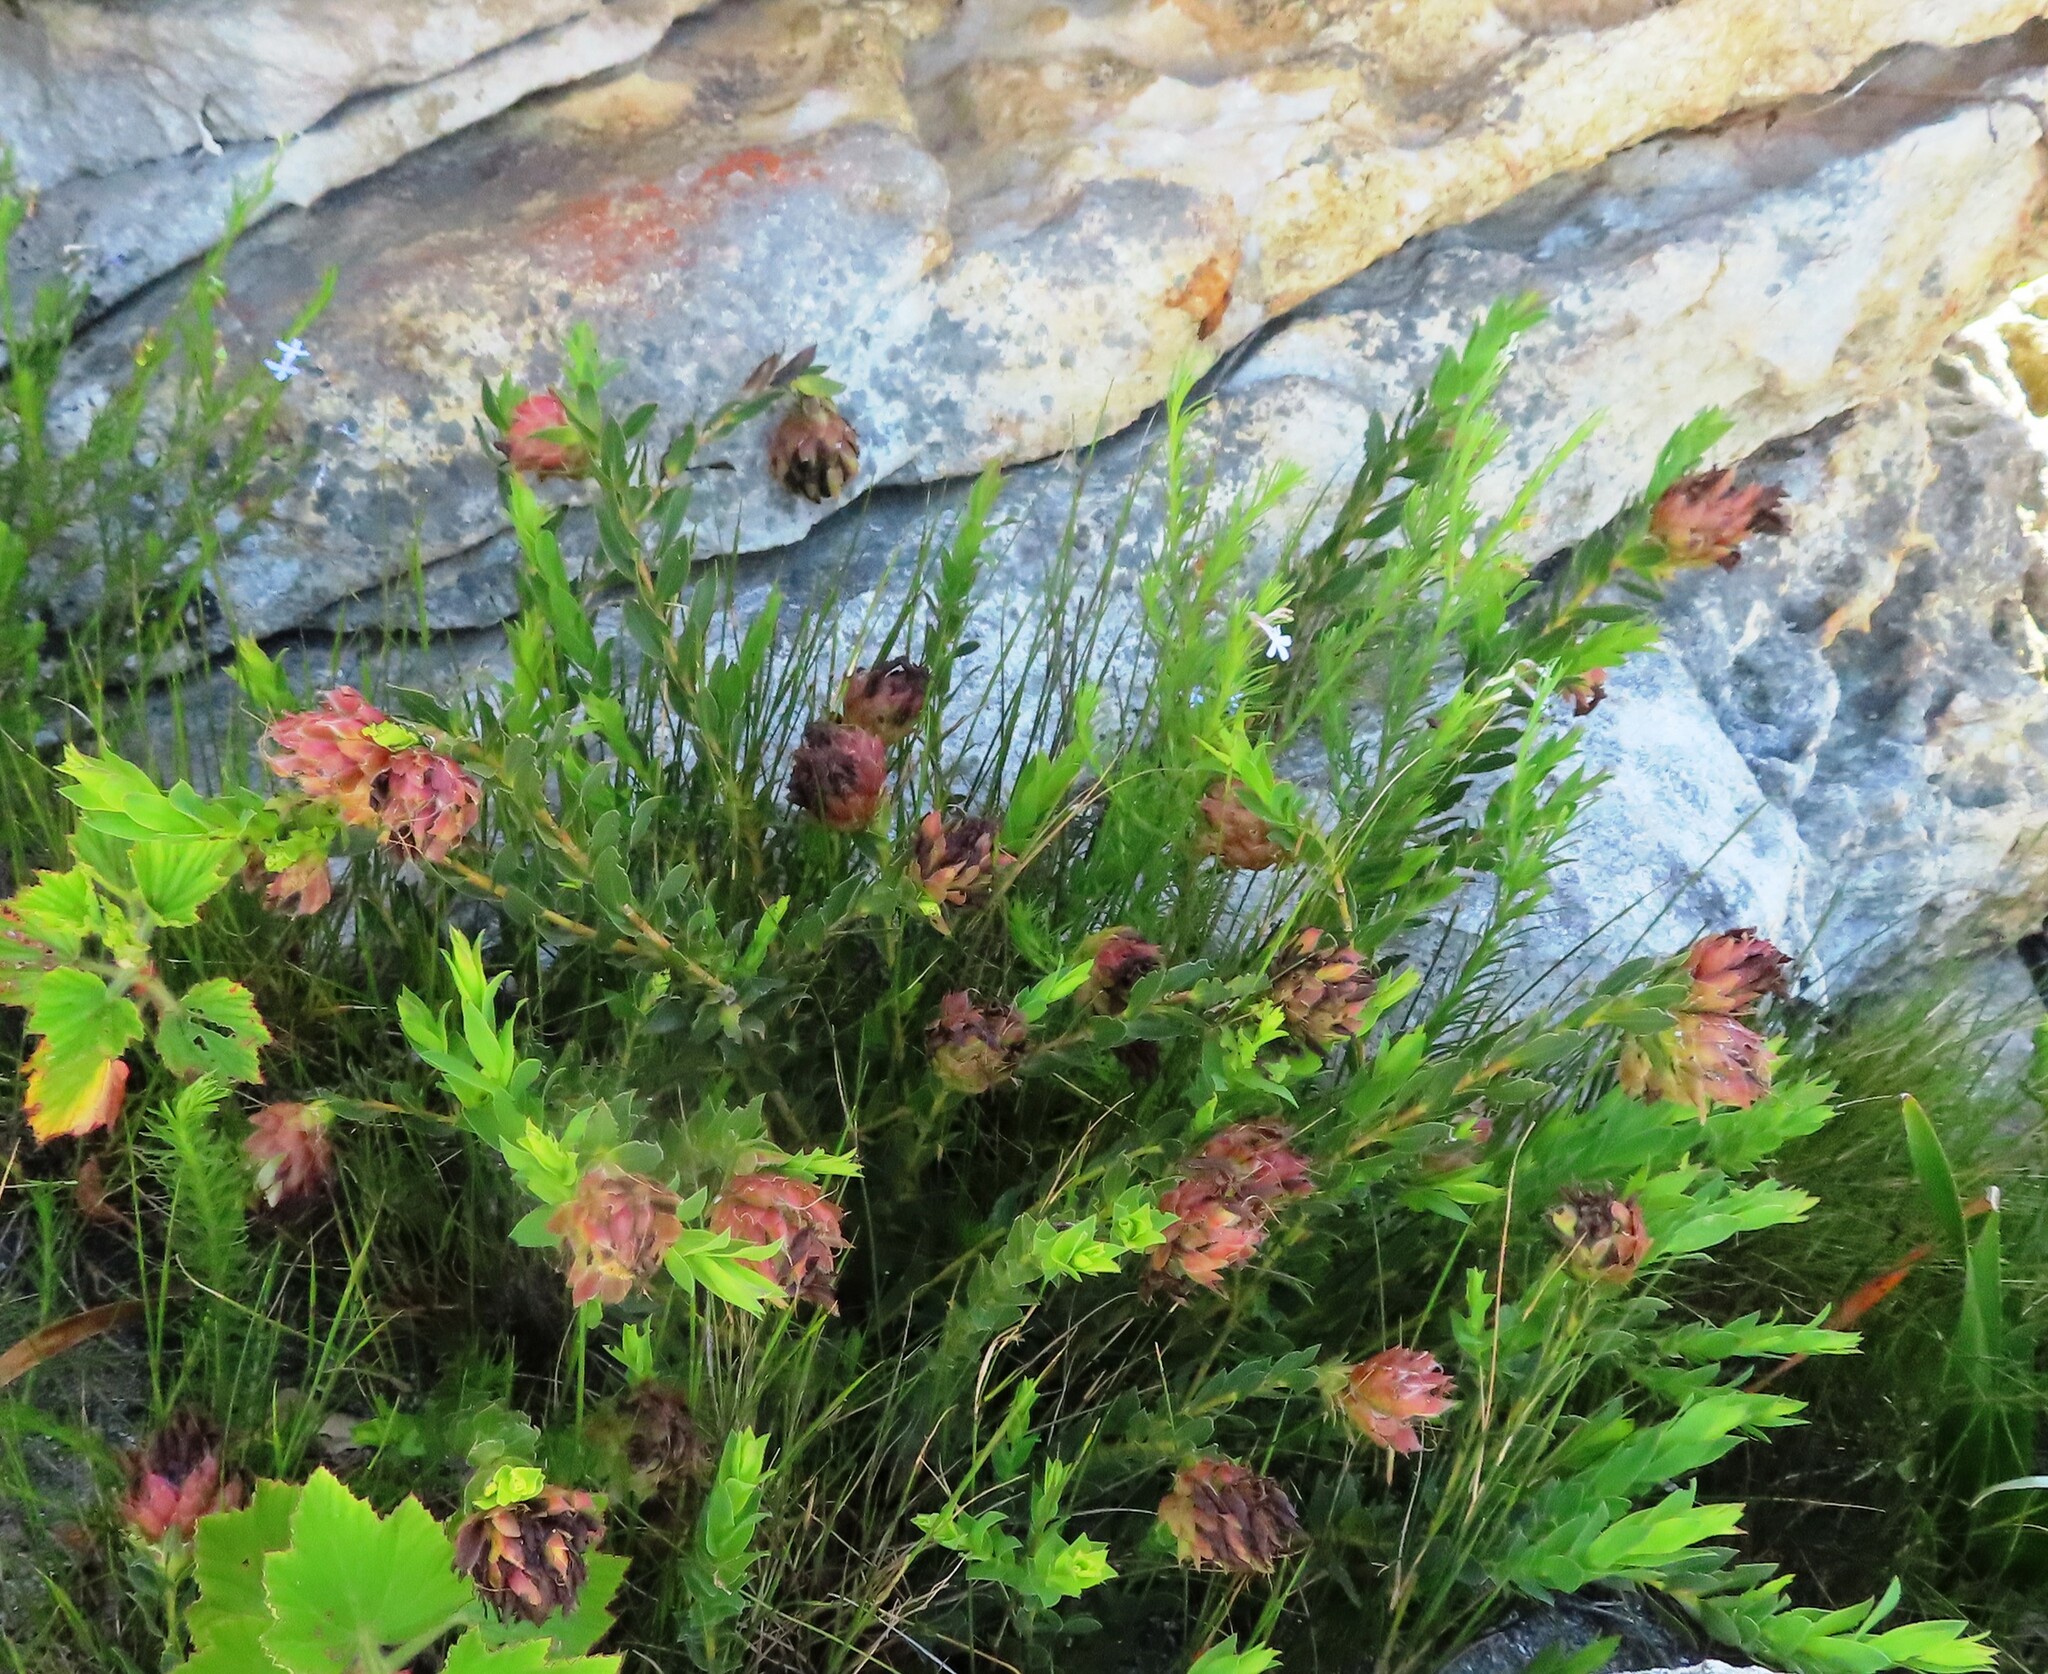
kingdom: Plantae
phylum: Tracheophyta
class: Magnoliopsida
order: Fabales
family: Fabaceae
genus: Liparia
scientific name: Liparia splendens
